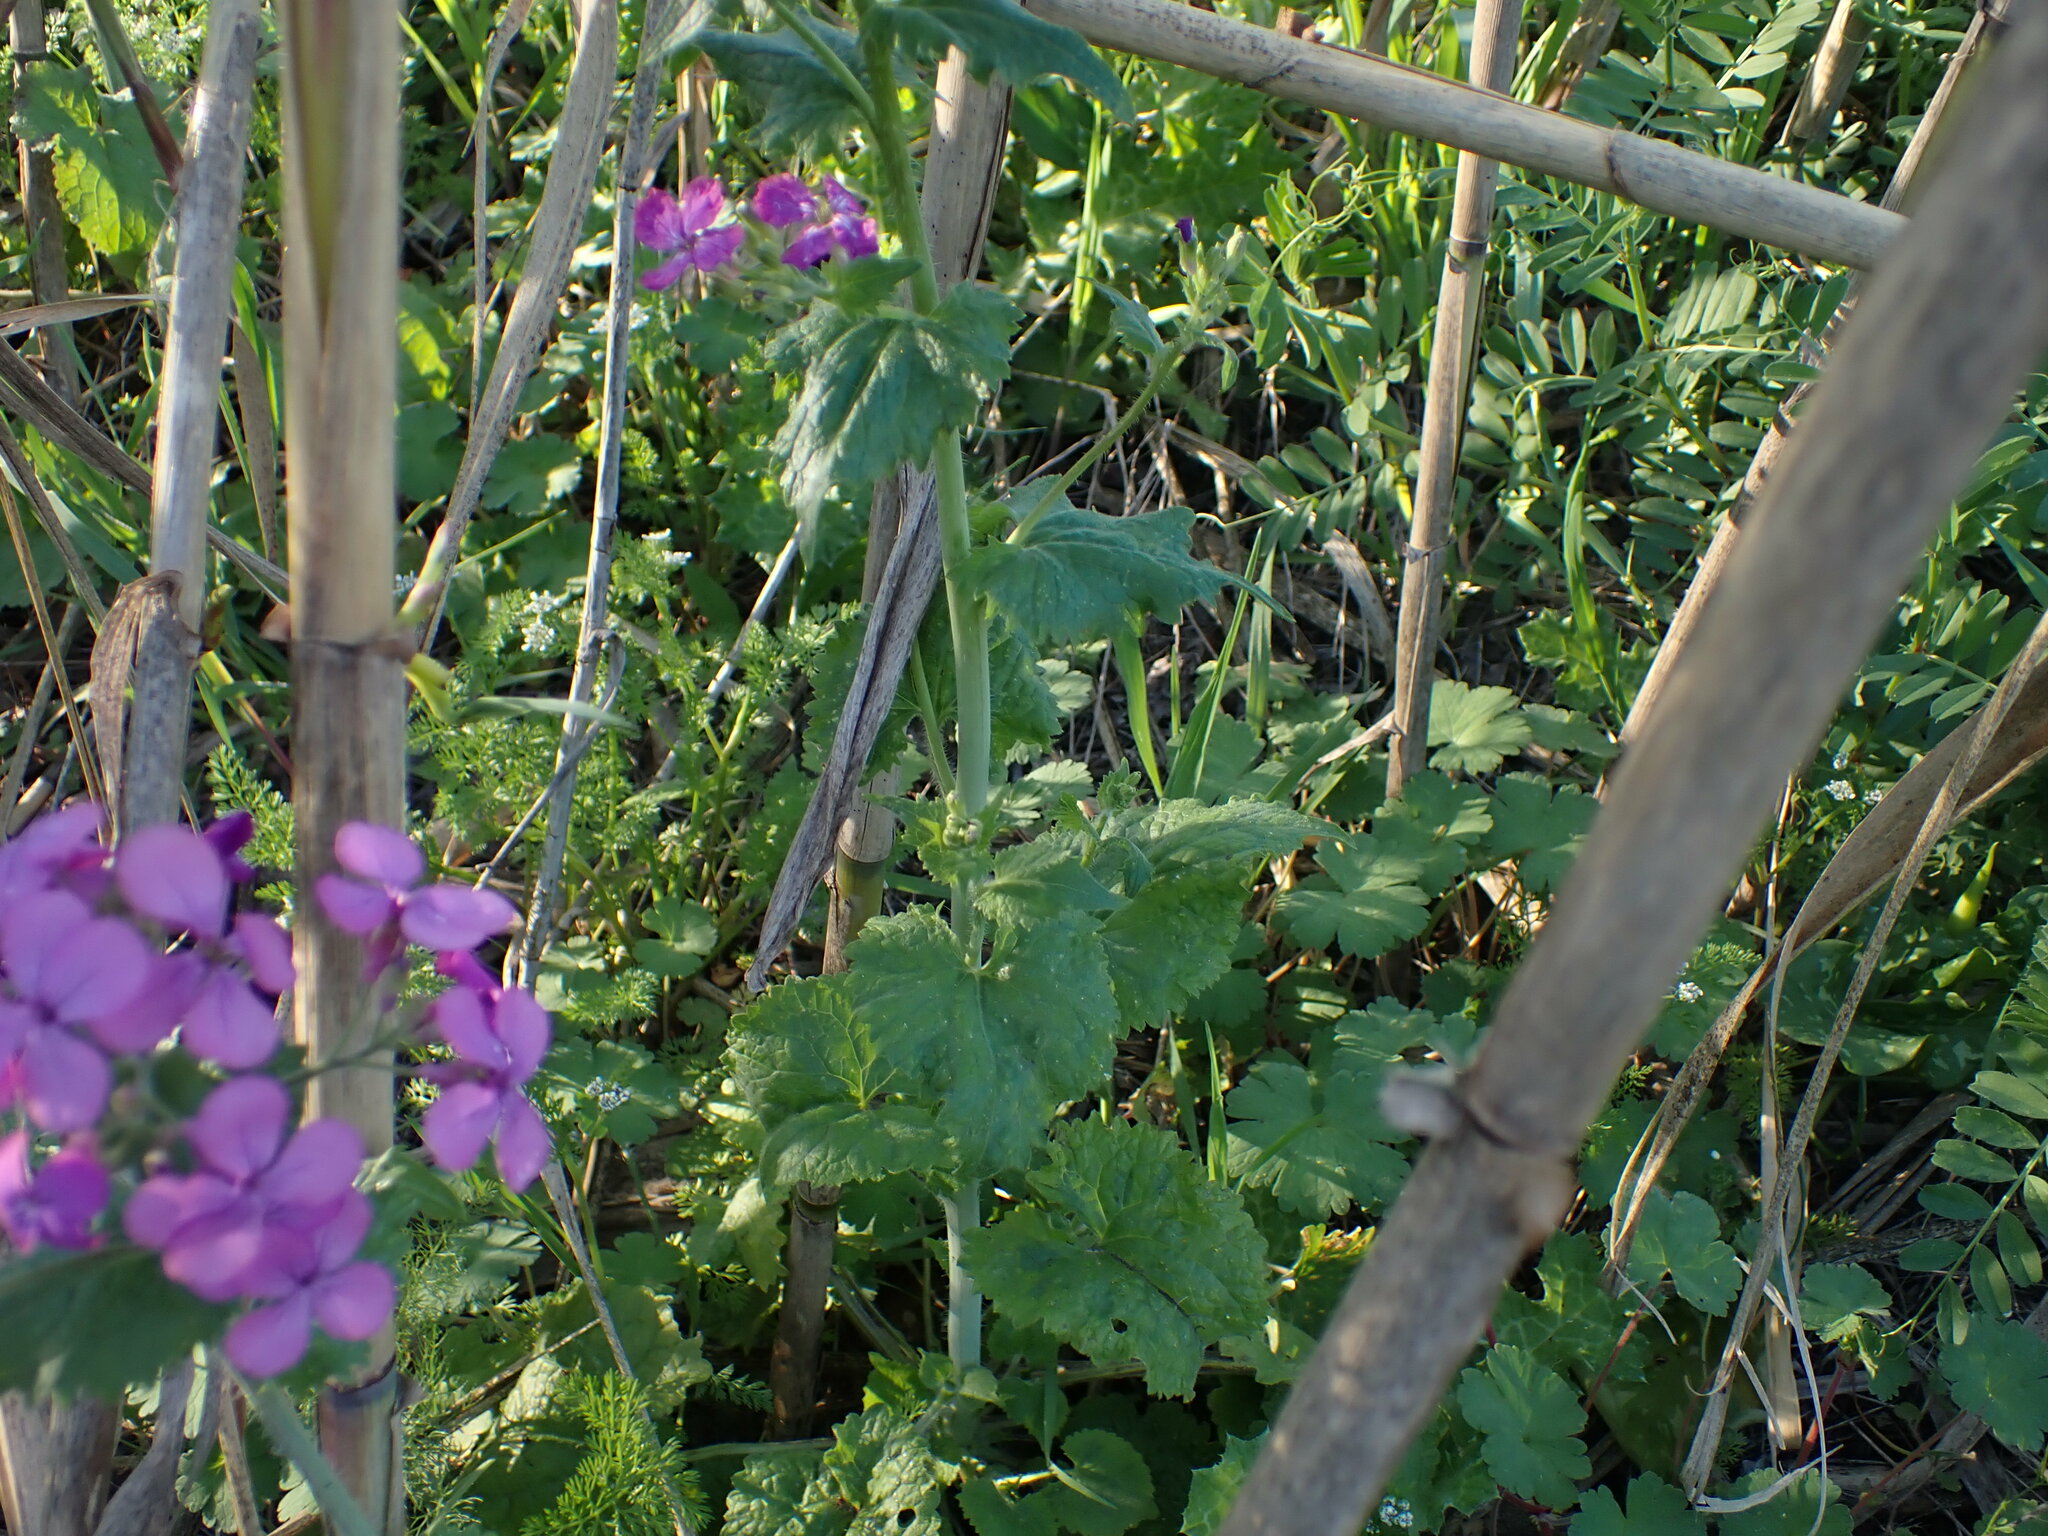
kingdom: Plantae
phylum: Tracheophyta
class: Magnoliopsida
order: Brassicales
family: Brassicaceae
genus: Lunaria
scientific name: Lunaria annua
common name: Honesty
